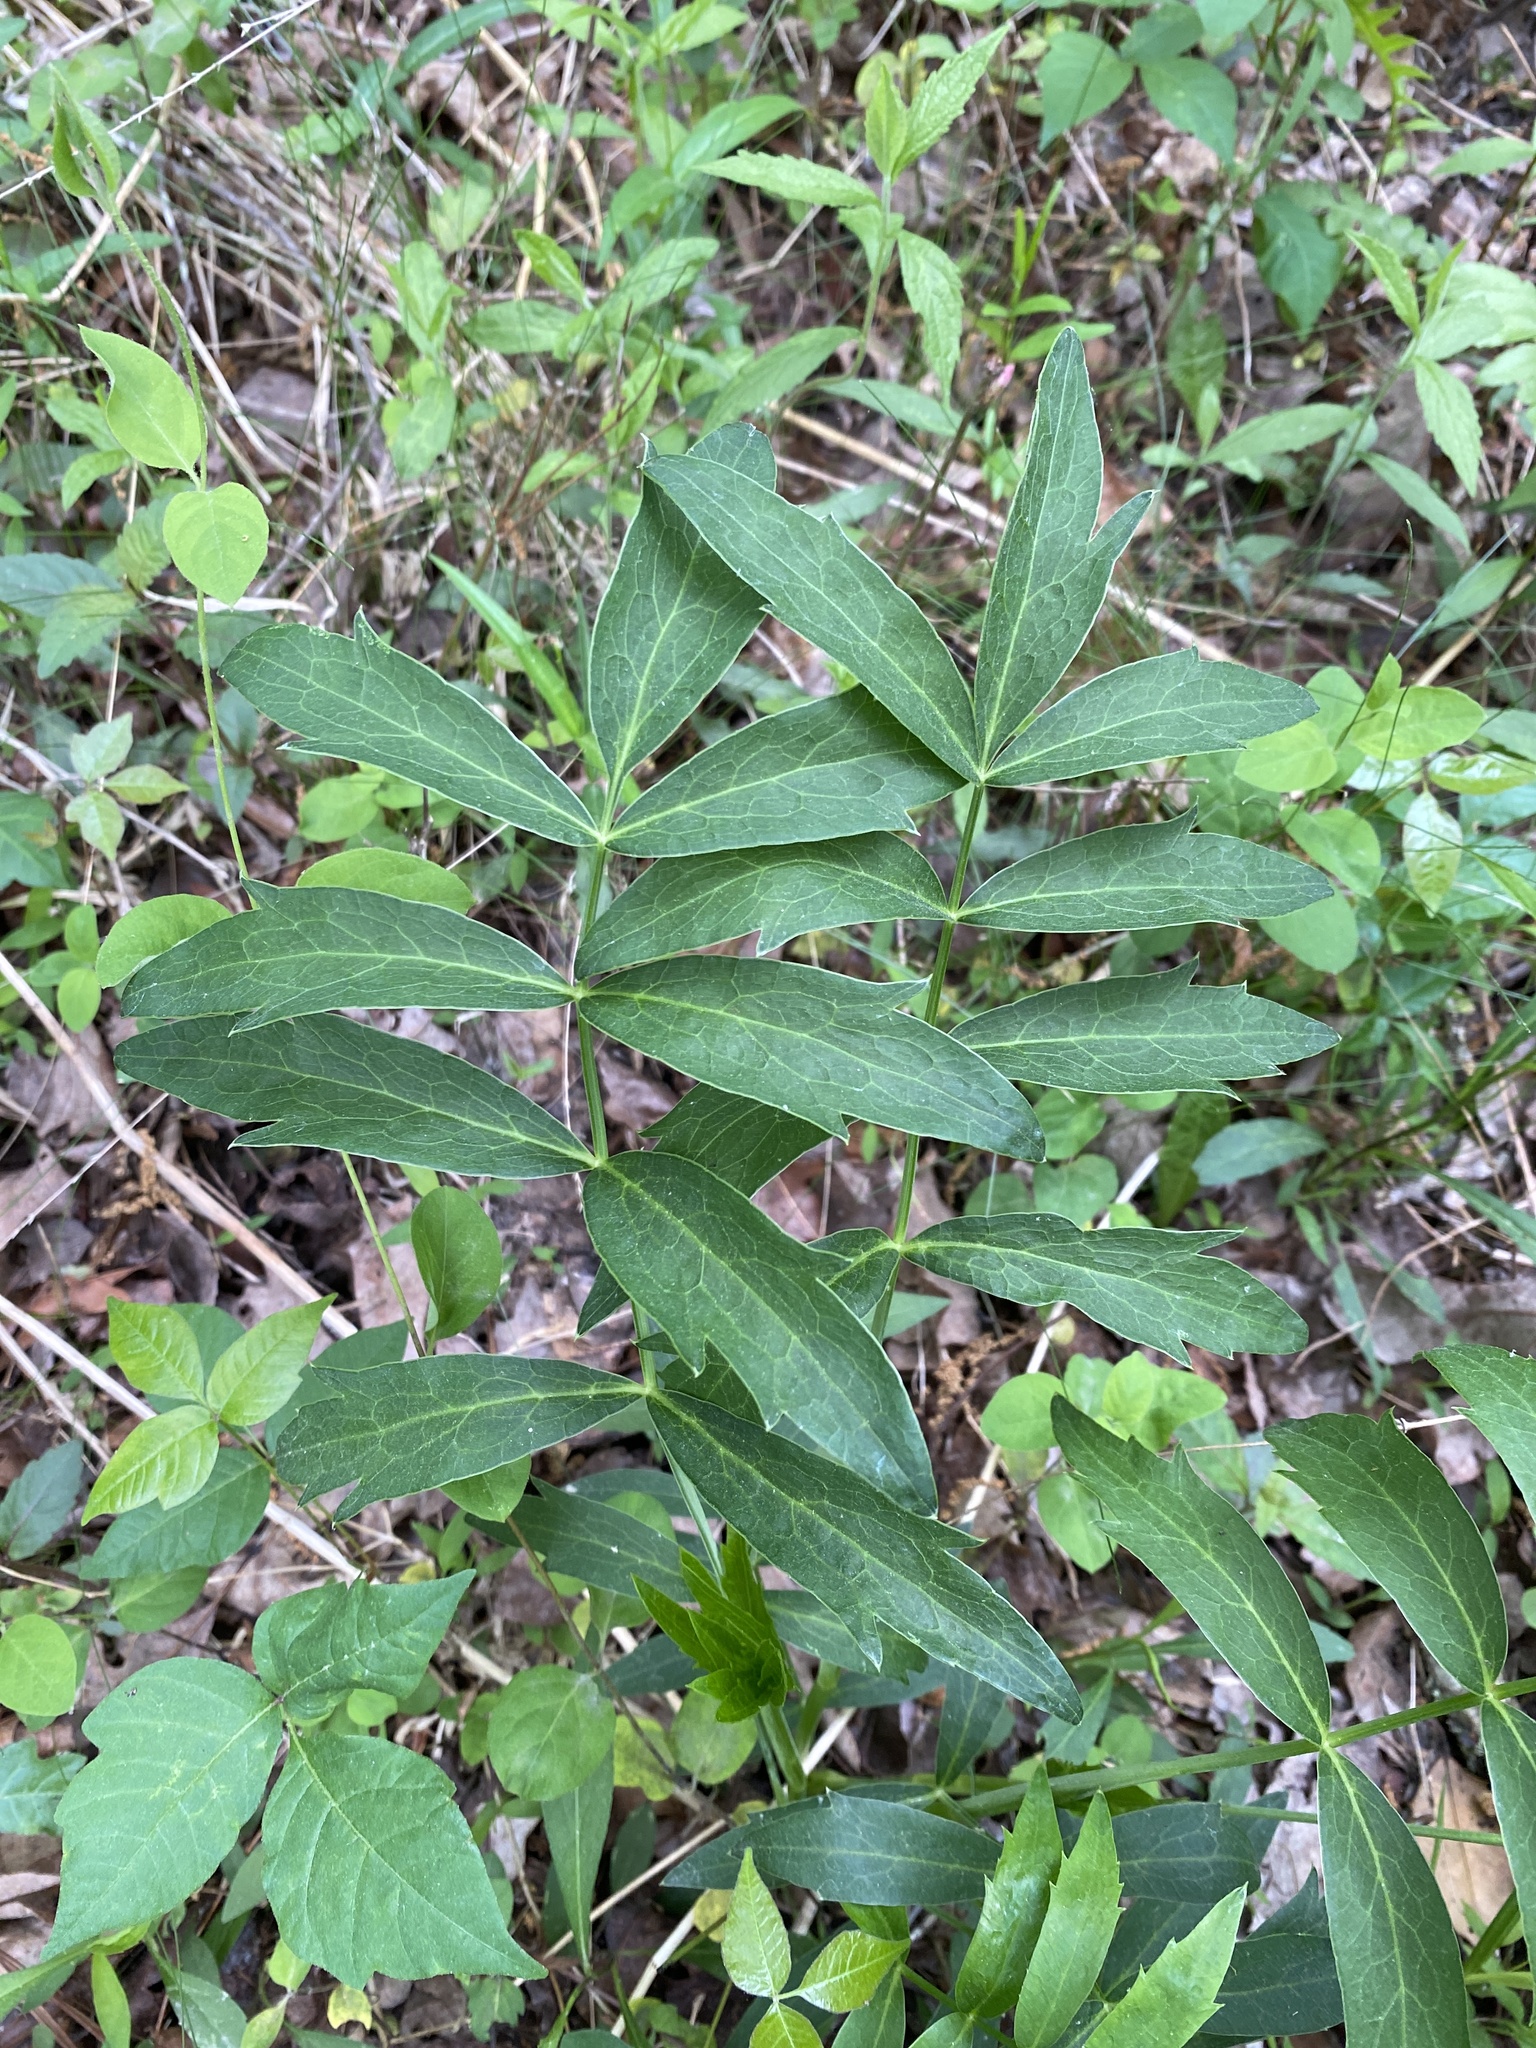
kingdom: Plantae
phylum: Tracheophyta
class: Magnoliopsida
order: Apiales
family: Apiaceae
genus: Oxypolis
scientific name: Oxypolis rigidior
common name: Cowbane
